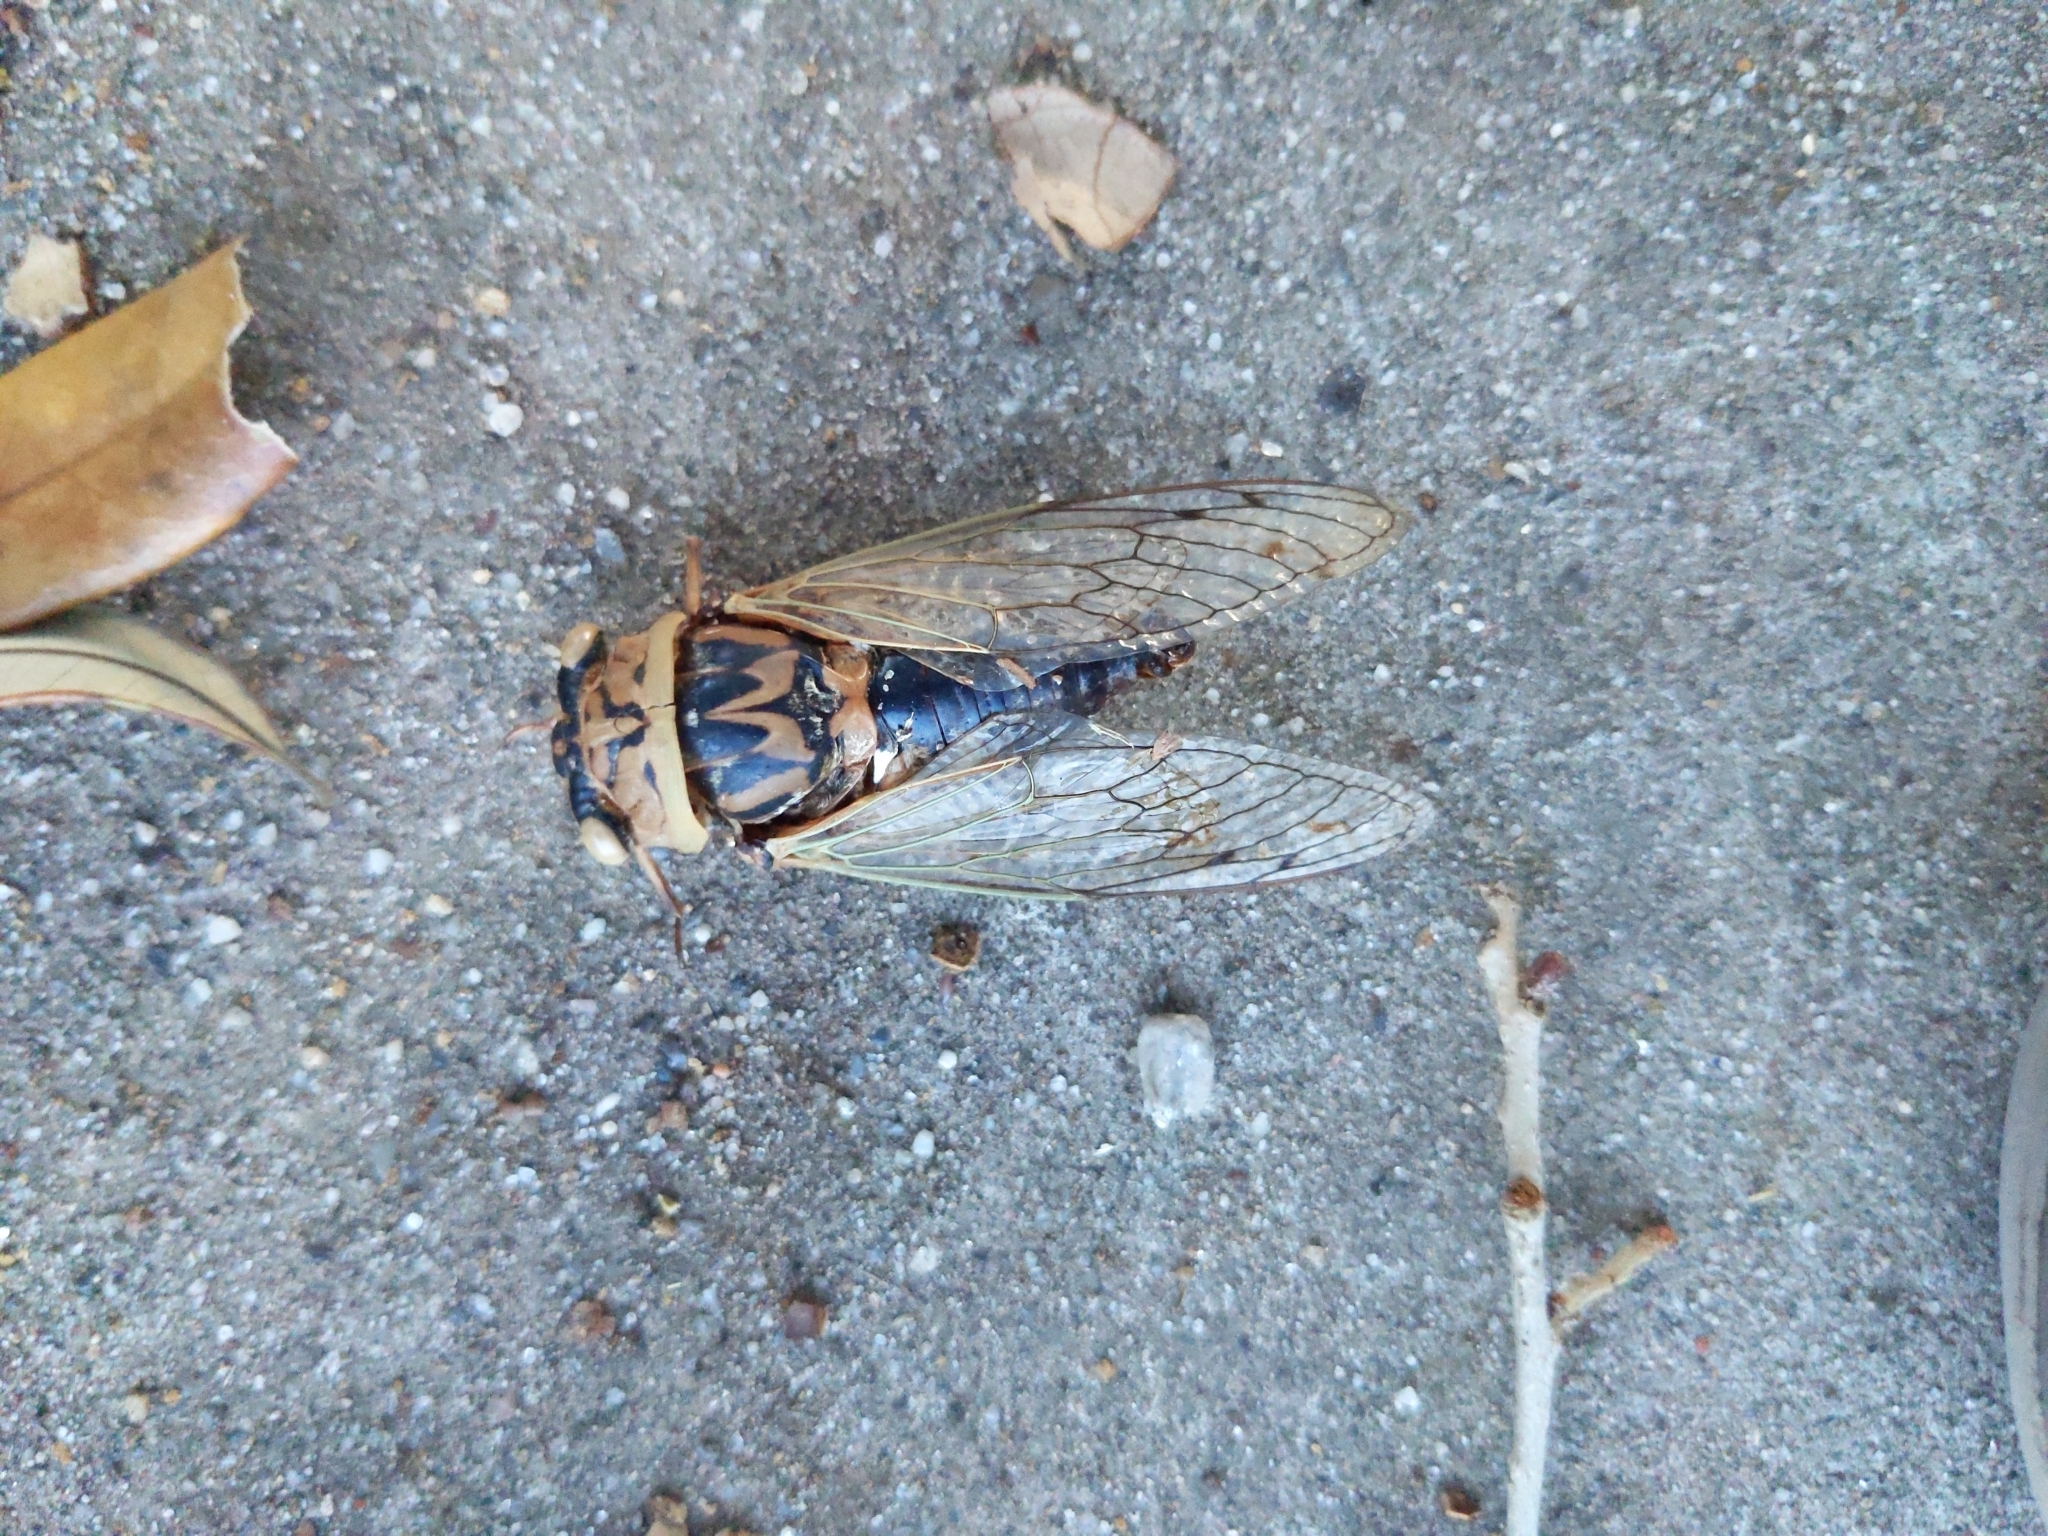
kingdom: Animalia
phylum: Arthropoda
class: Insecta
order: Hemiptera
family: Cicadidae
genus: Megatibicen
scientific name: Megatibicen resh
